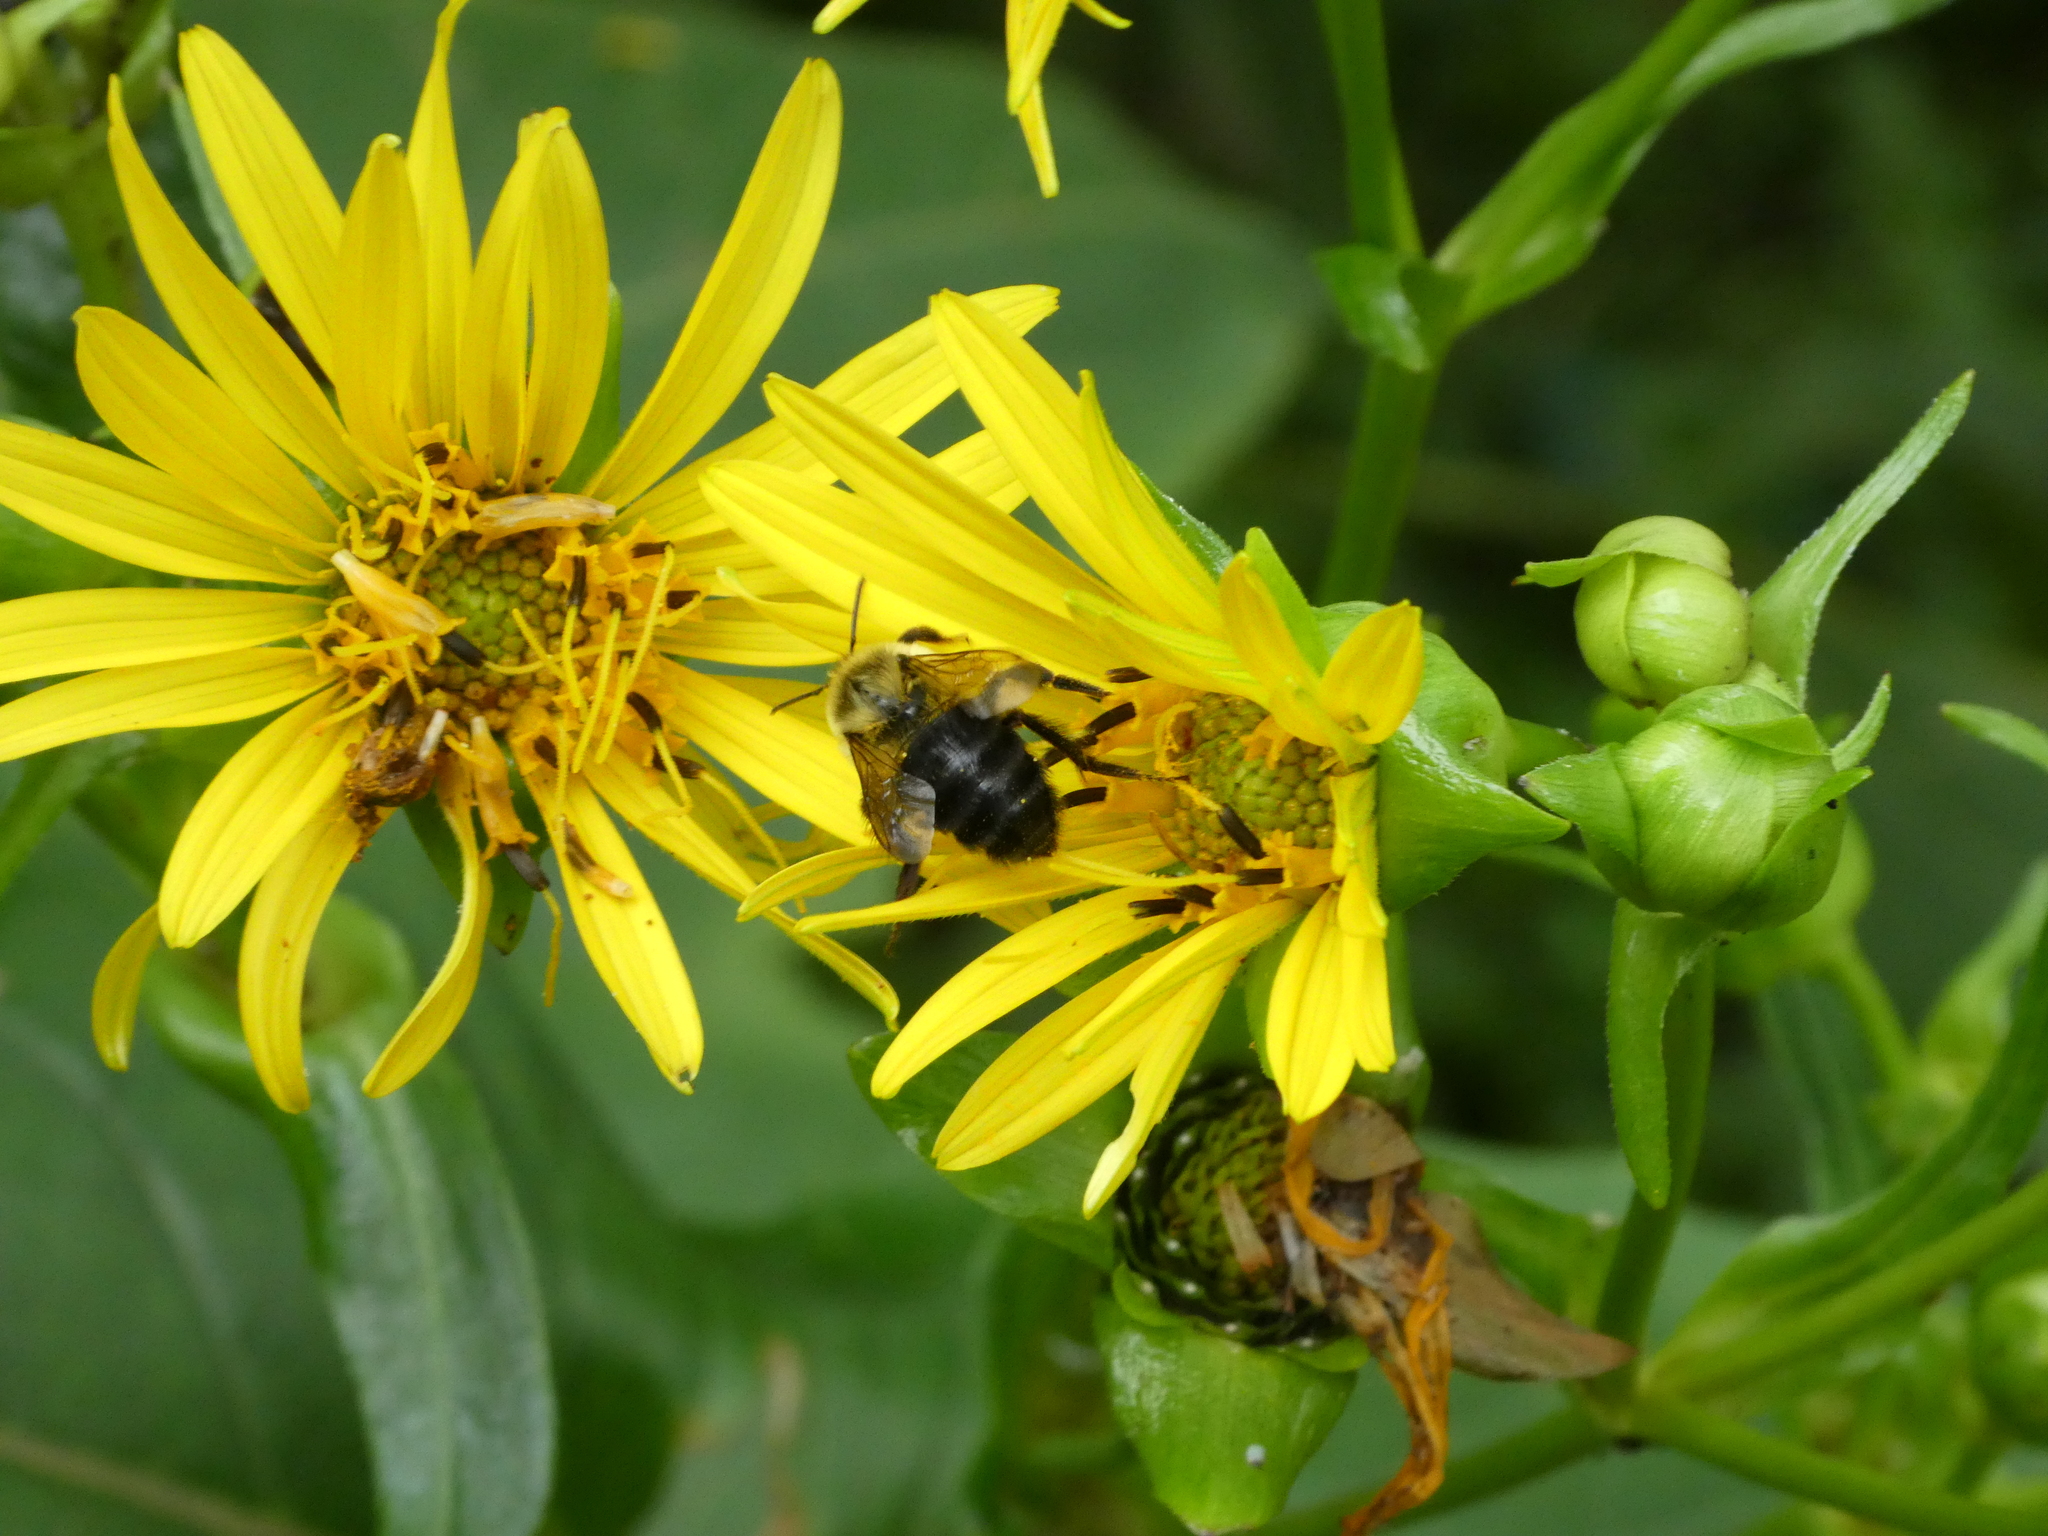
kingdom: Animalia
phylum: Arthropoda
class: Insecta
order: Hymenoptera
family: Apidae
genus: Bombus
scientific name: Bombus impatiens
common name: Common eastern bumble bee
